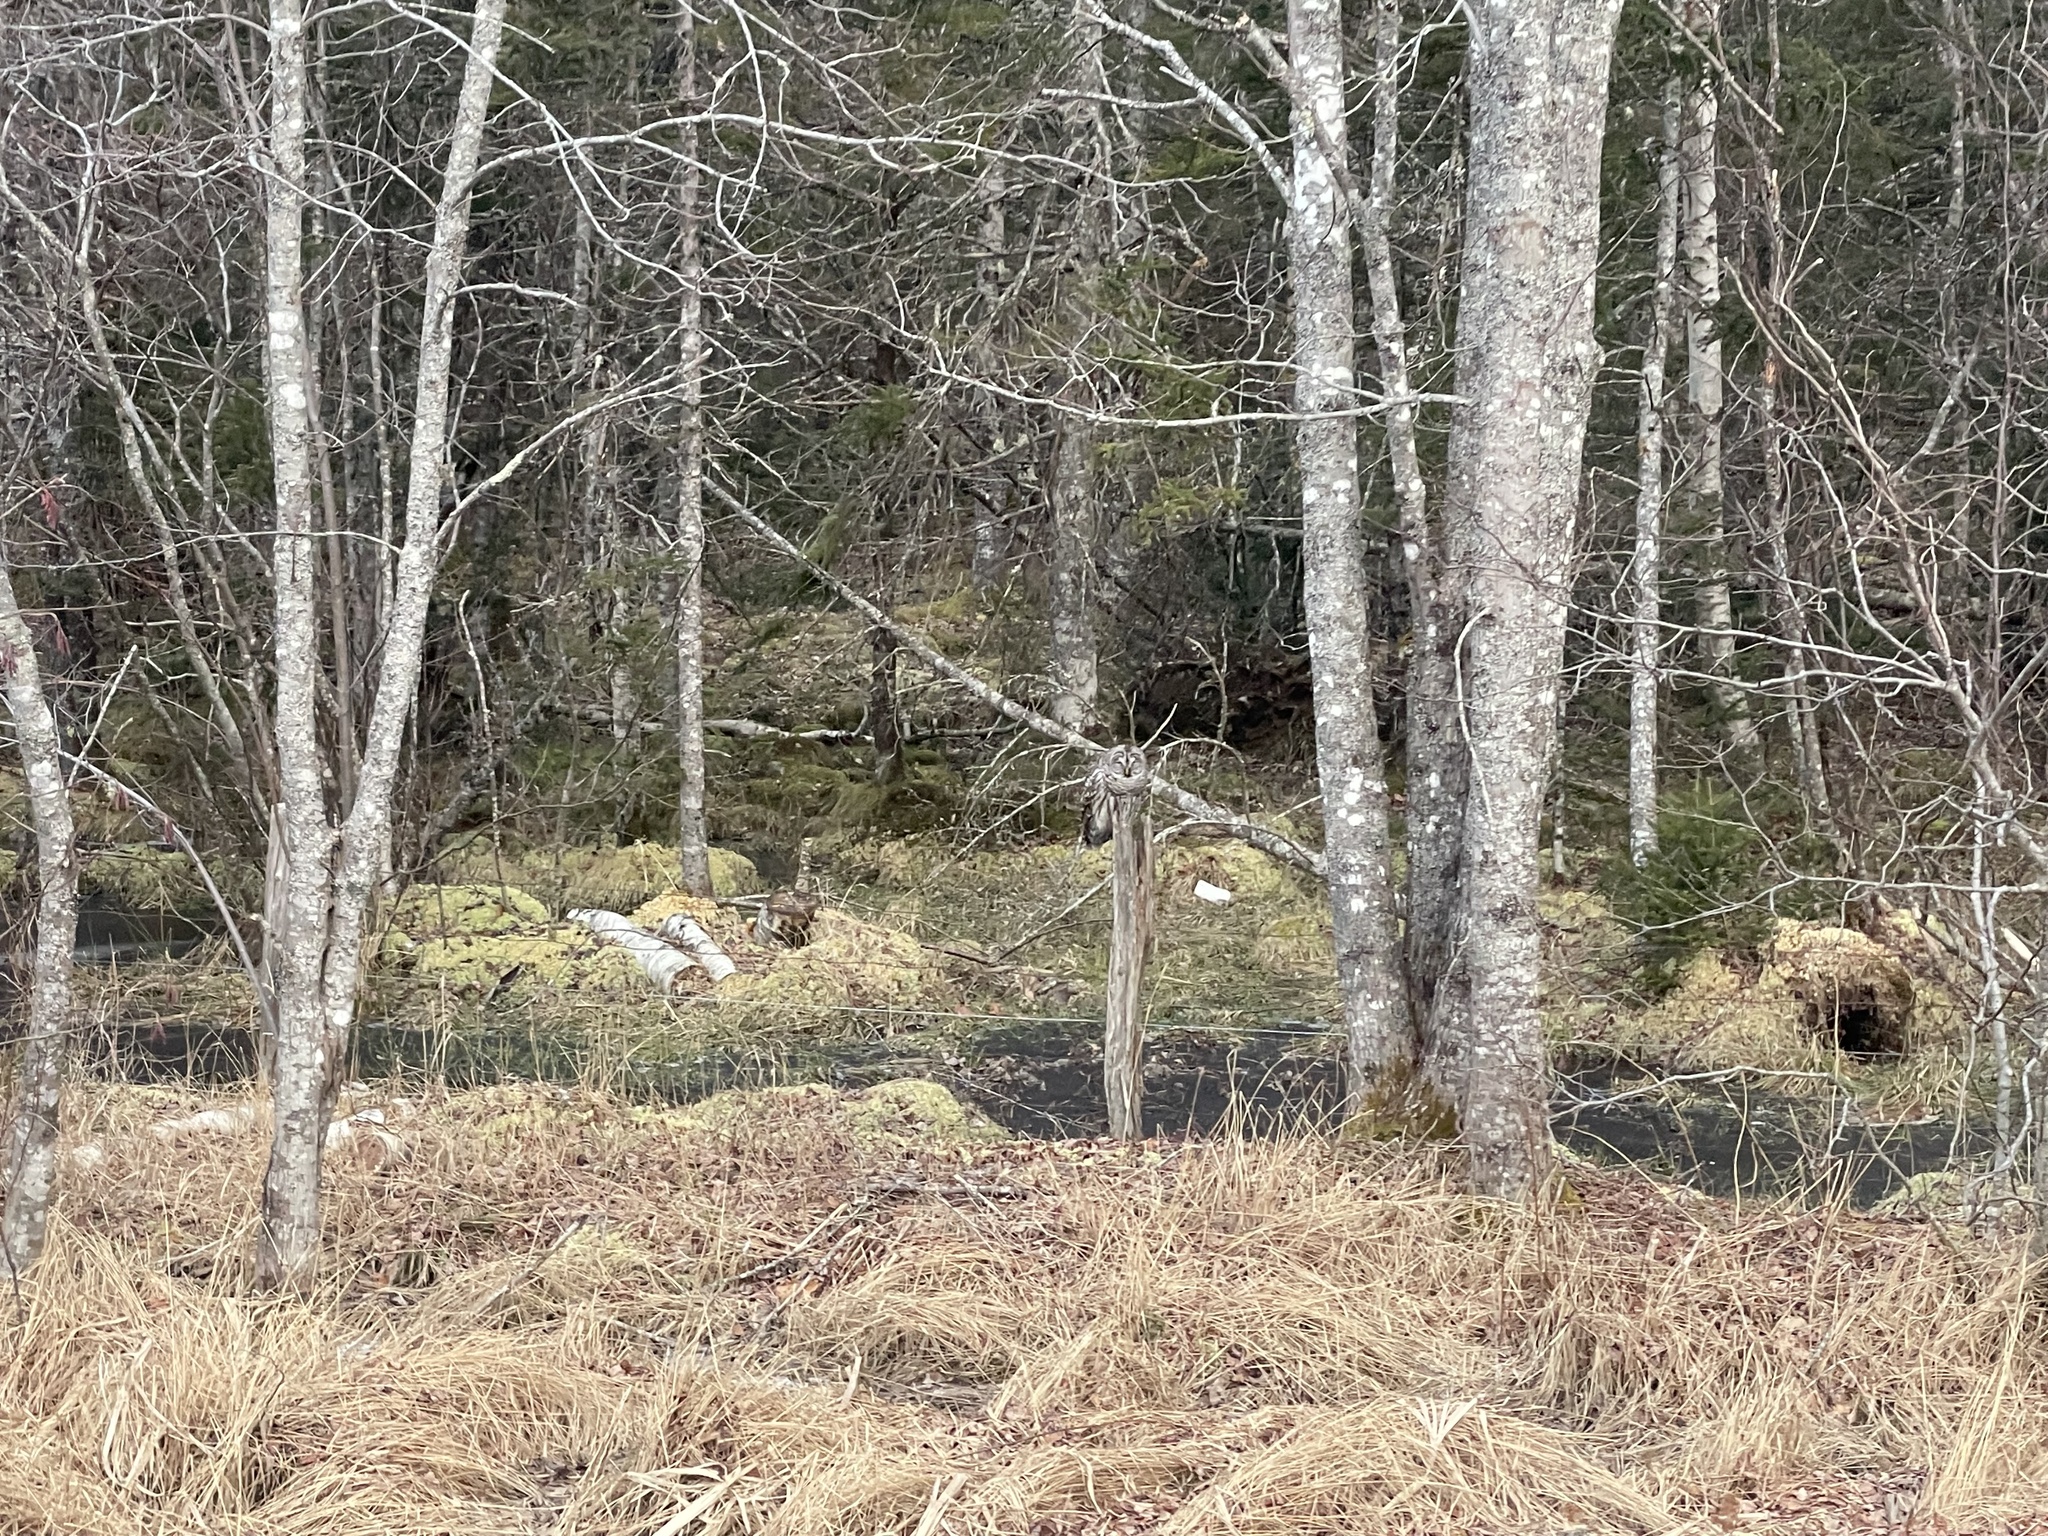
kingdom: Animalia
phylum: Chordata
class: Aves
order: Strigiformes
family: Strigidae
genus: Strix
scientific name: Strix varia
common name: Barred owl
